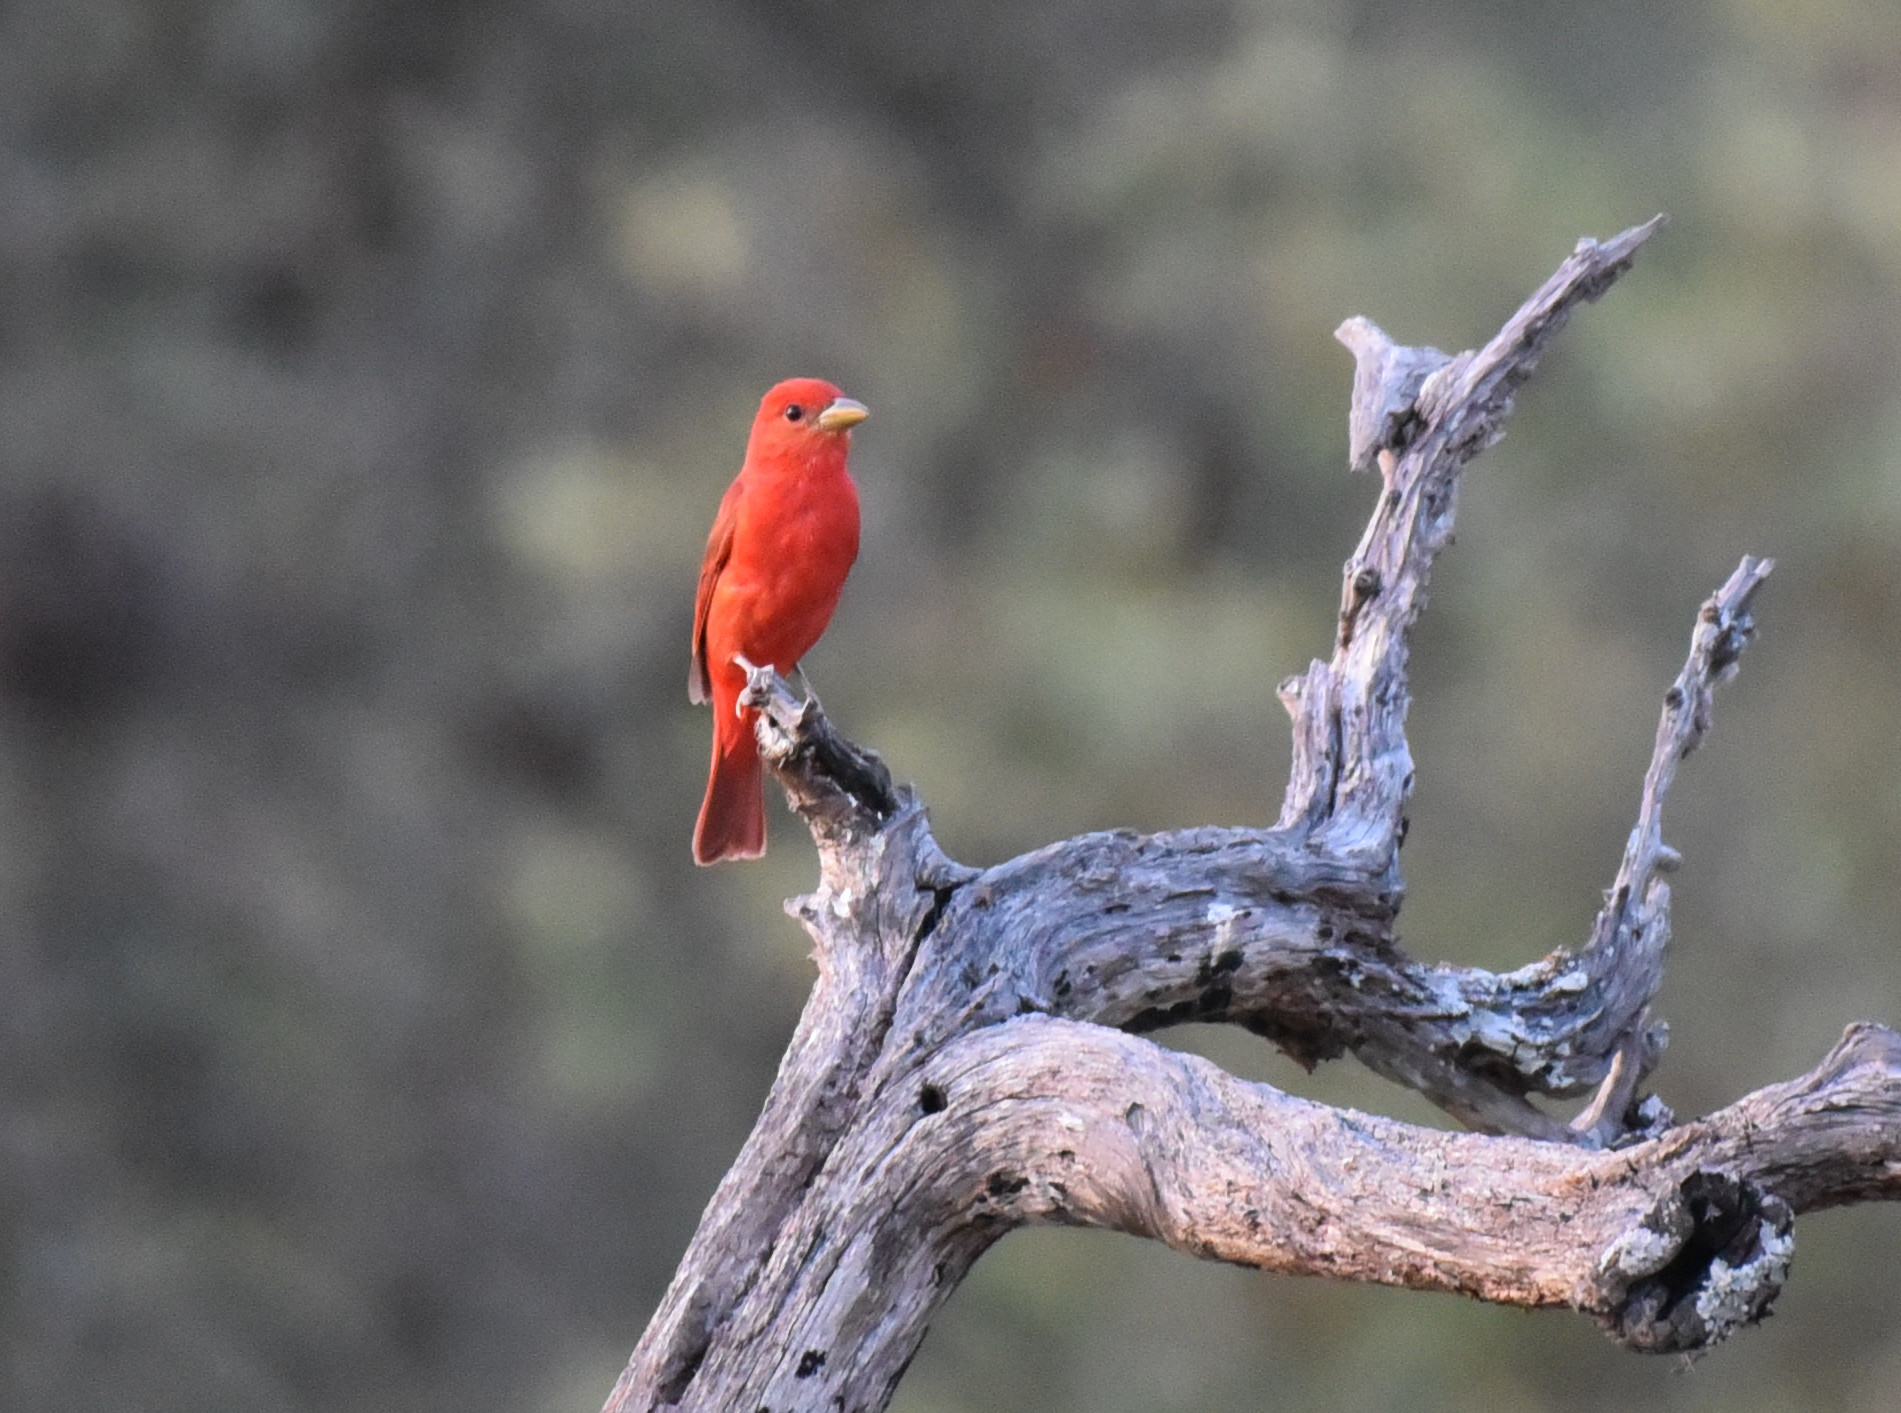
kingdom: Animalia
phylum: Chordata
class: Aves
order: Passeriformes
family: Cardinalidae
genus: Piranga
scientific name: Piranga rubra
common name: Summer tanager
